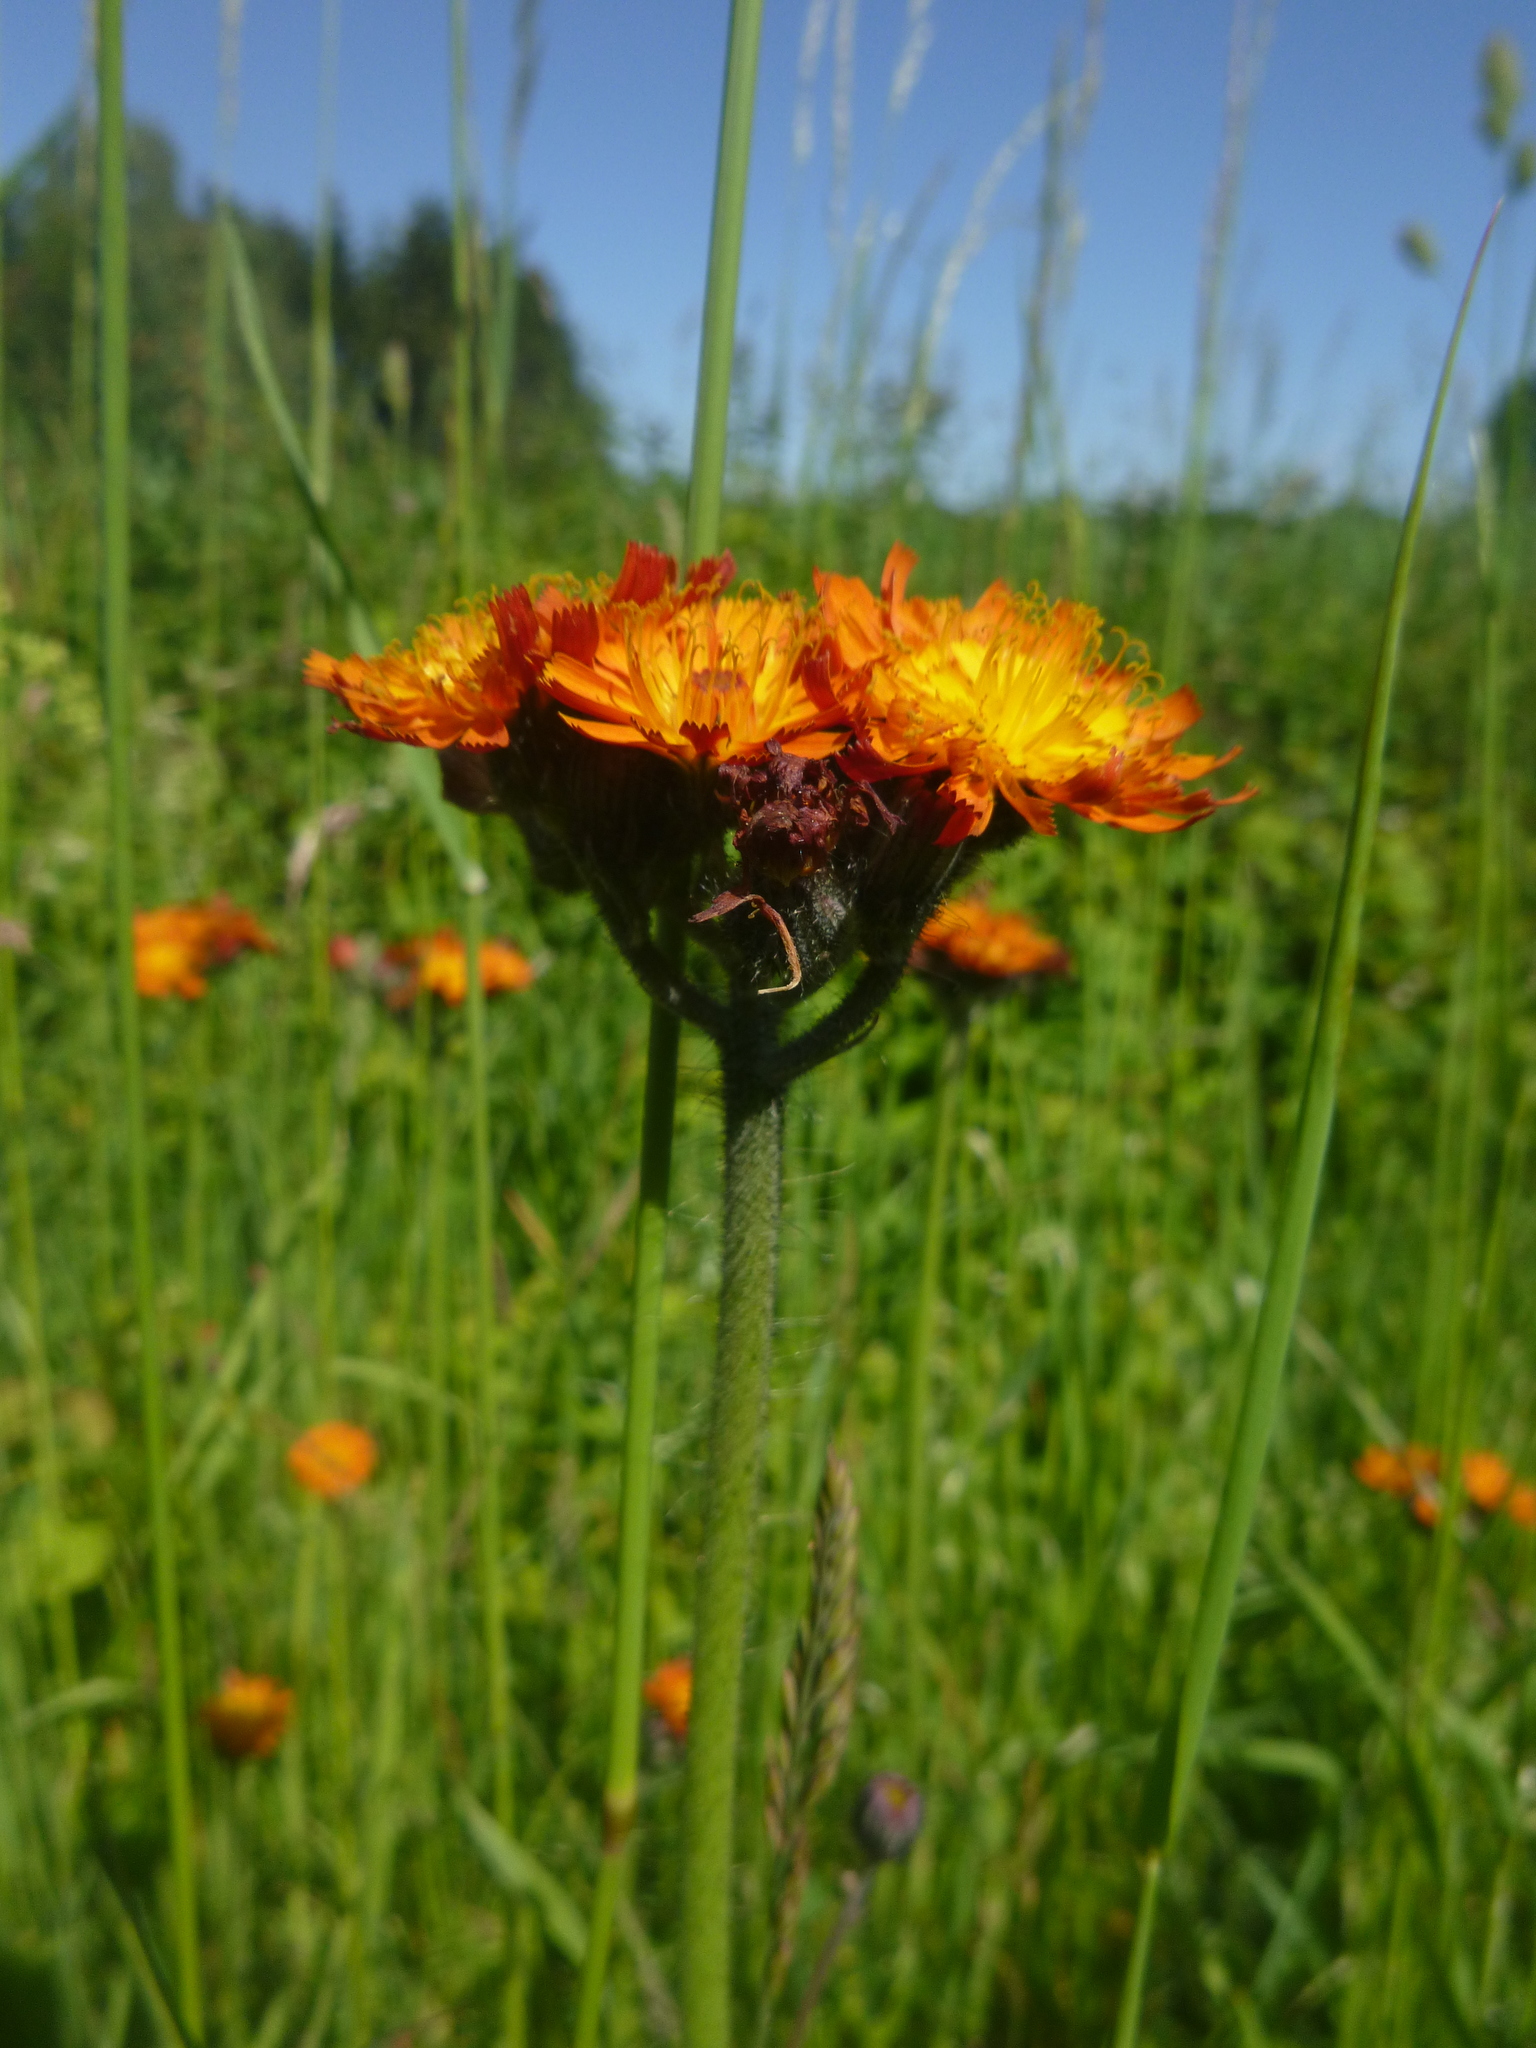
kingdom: Plantae
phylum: Tracheophyta
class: Magnoliopsida
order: Asterales
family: Asteraceae
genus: Pilosella
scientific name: Pilosella aurantiaca
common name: Fox-and-cubs
